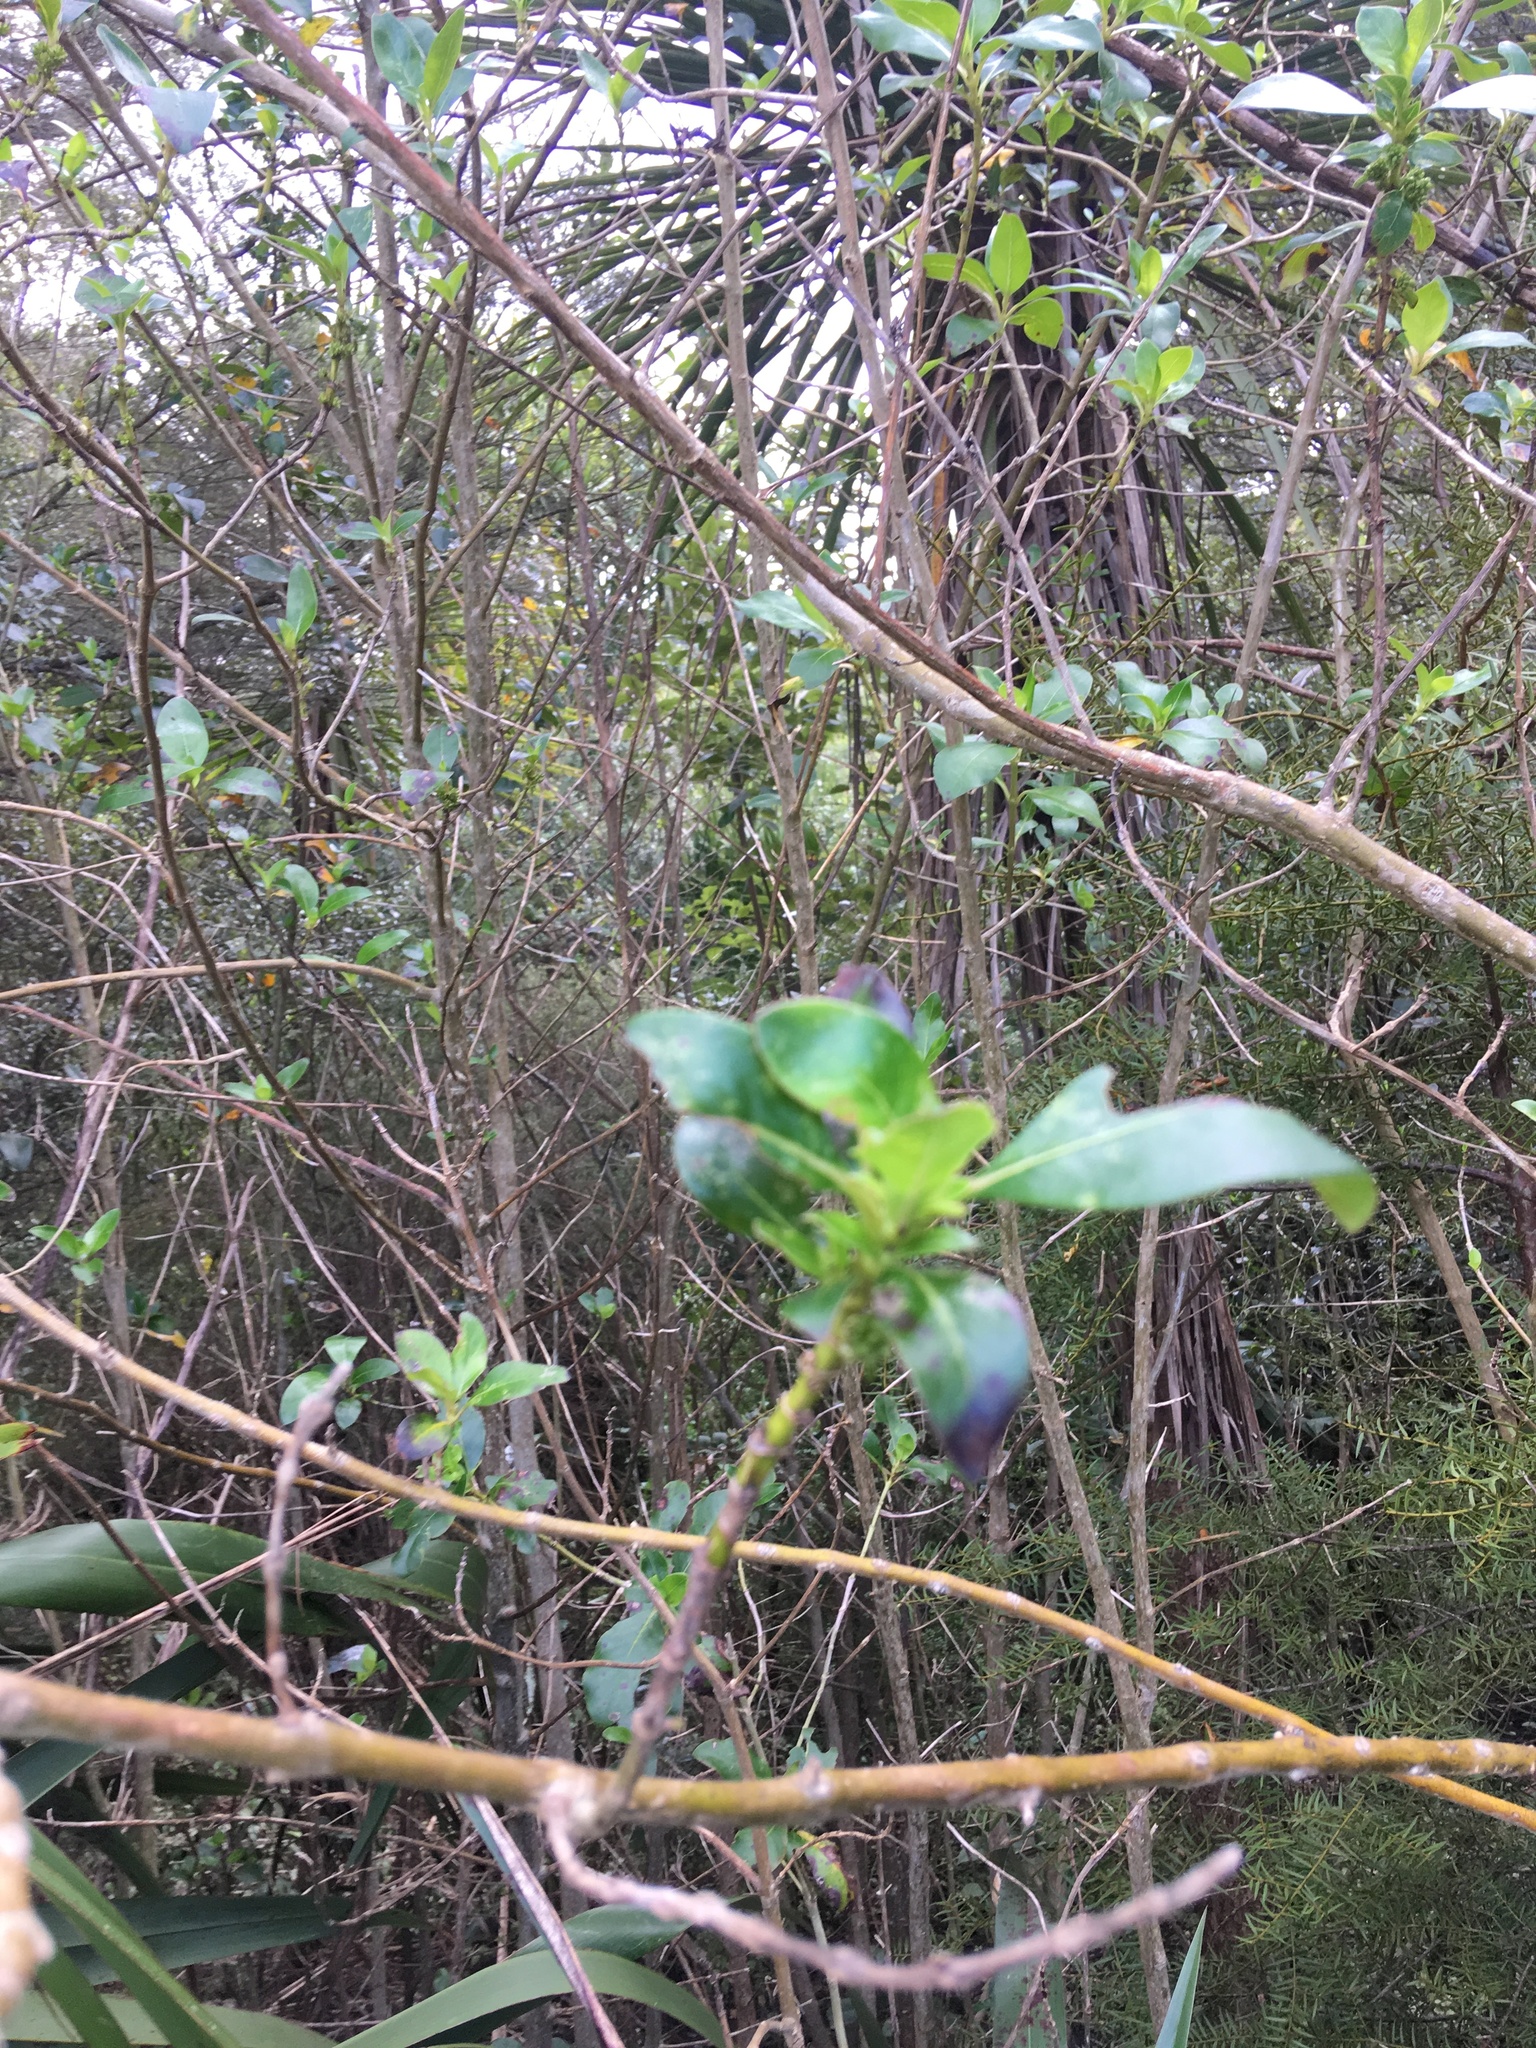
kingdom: Plantae
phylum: Tracheophyta
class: Liliopsida
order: Asparagales
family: Asparagaceae
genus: Cordyline
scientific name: Cordyline australis
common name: Cabbage-palm
